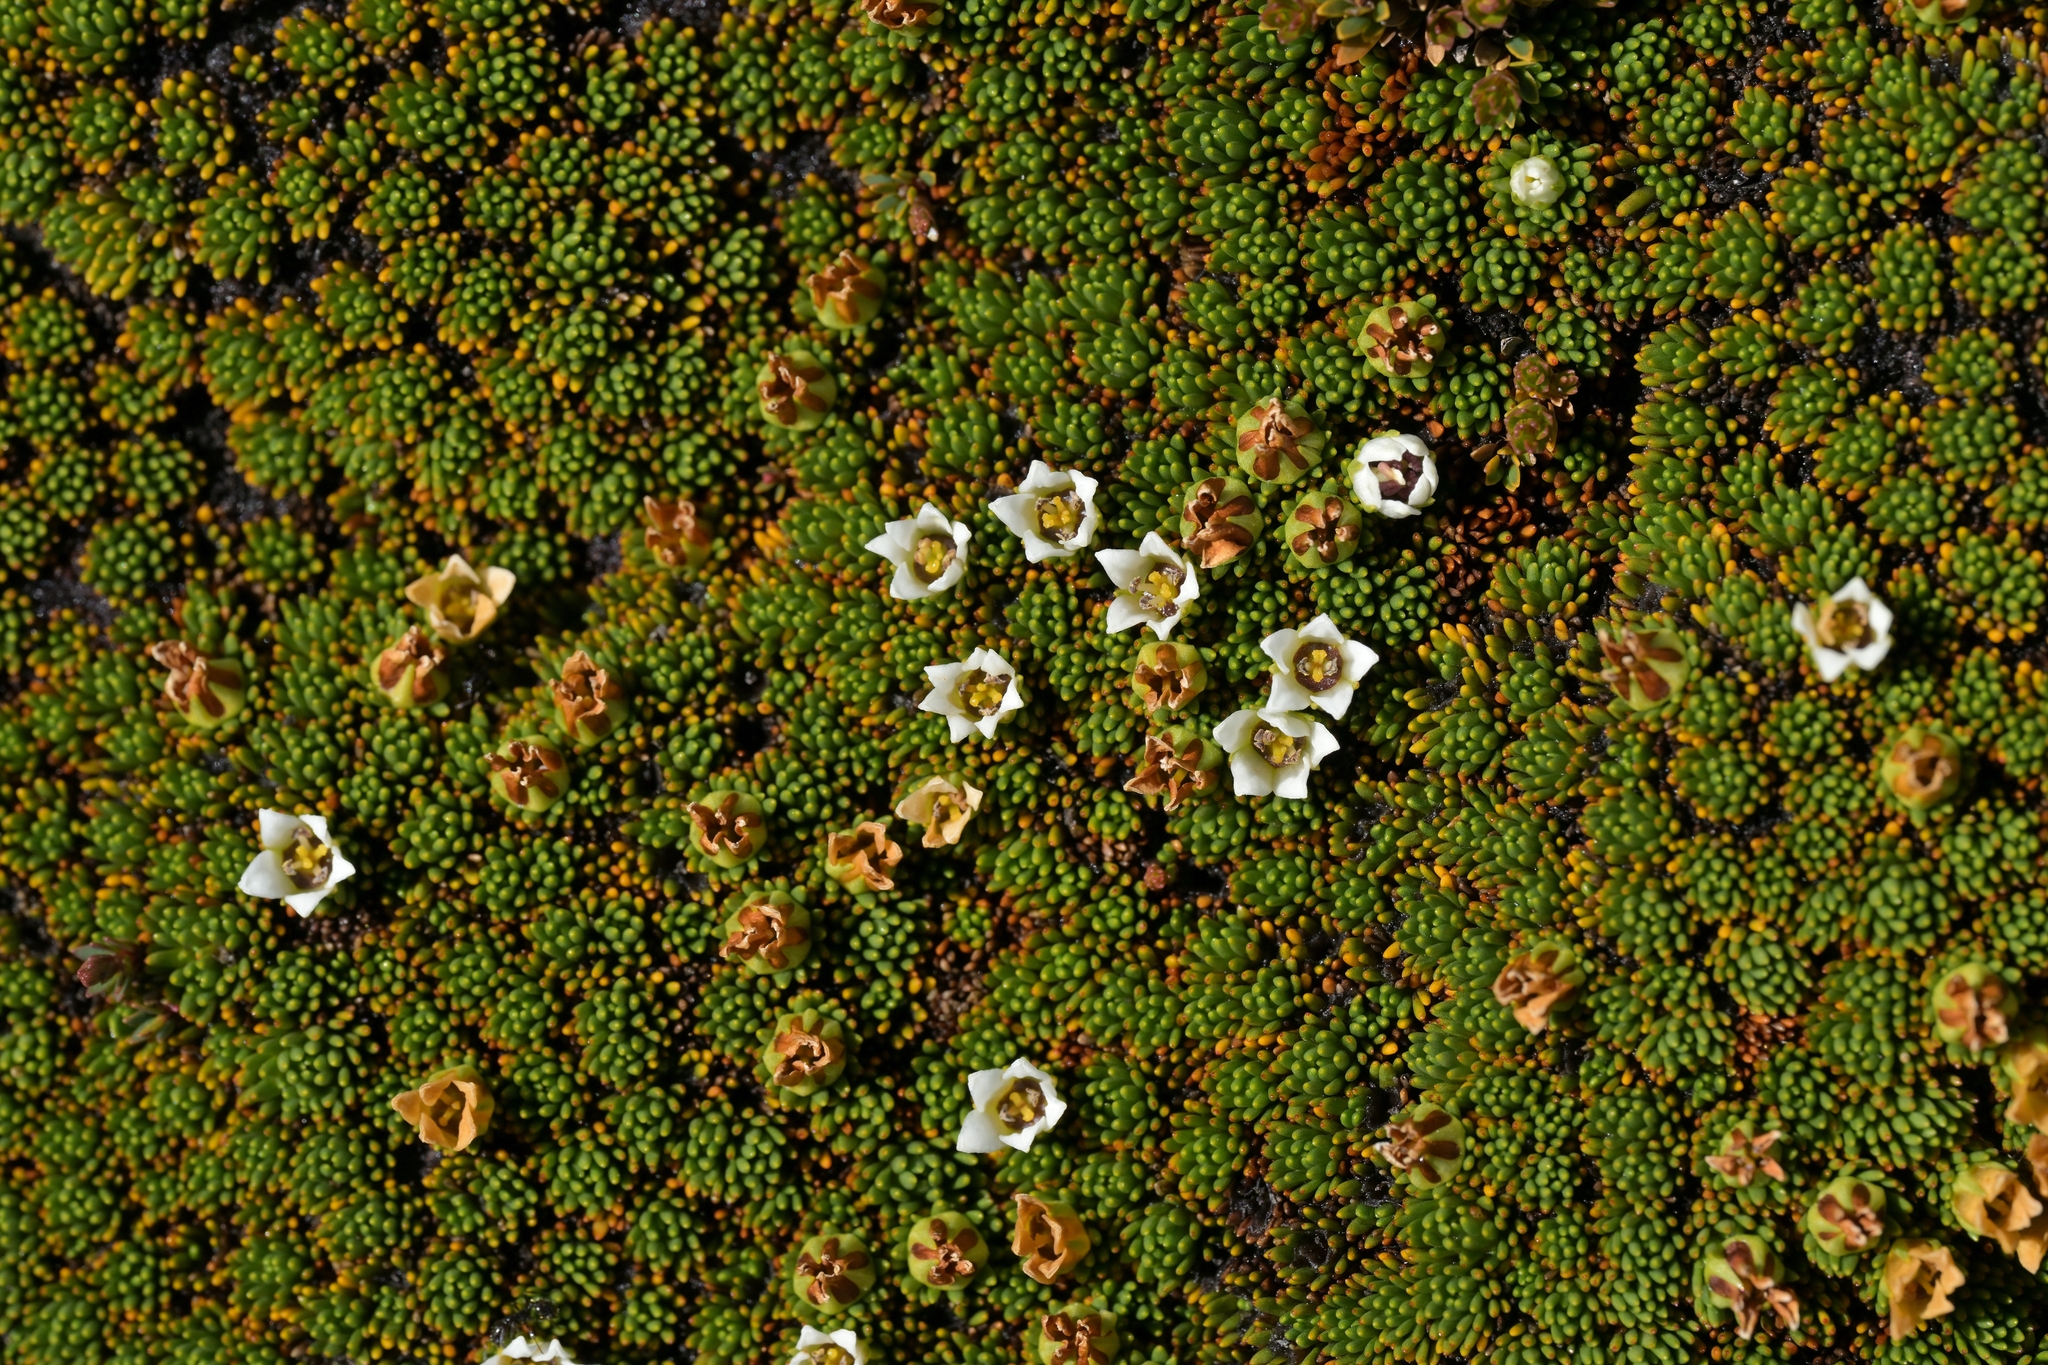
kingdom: Plantae
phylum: Tracheophyta
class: Magnoliopsida
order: Asterales
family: Stylidiaceae
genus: Donatia
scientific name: Donatia novae-zelandiae
